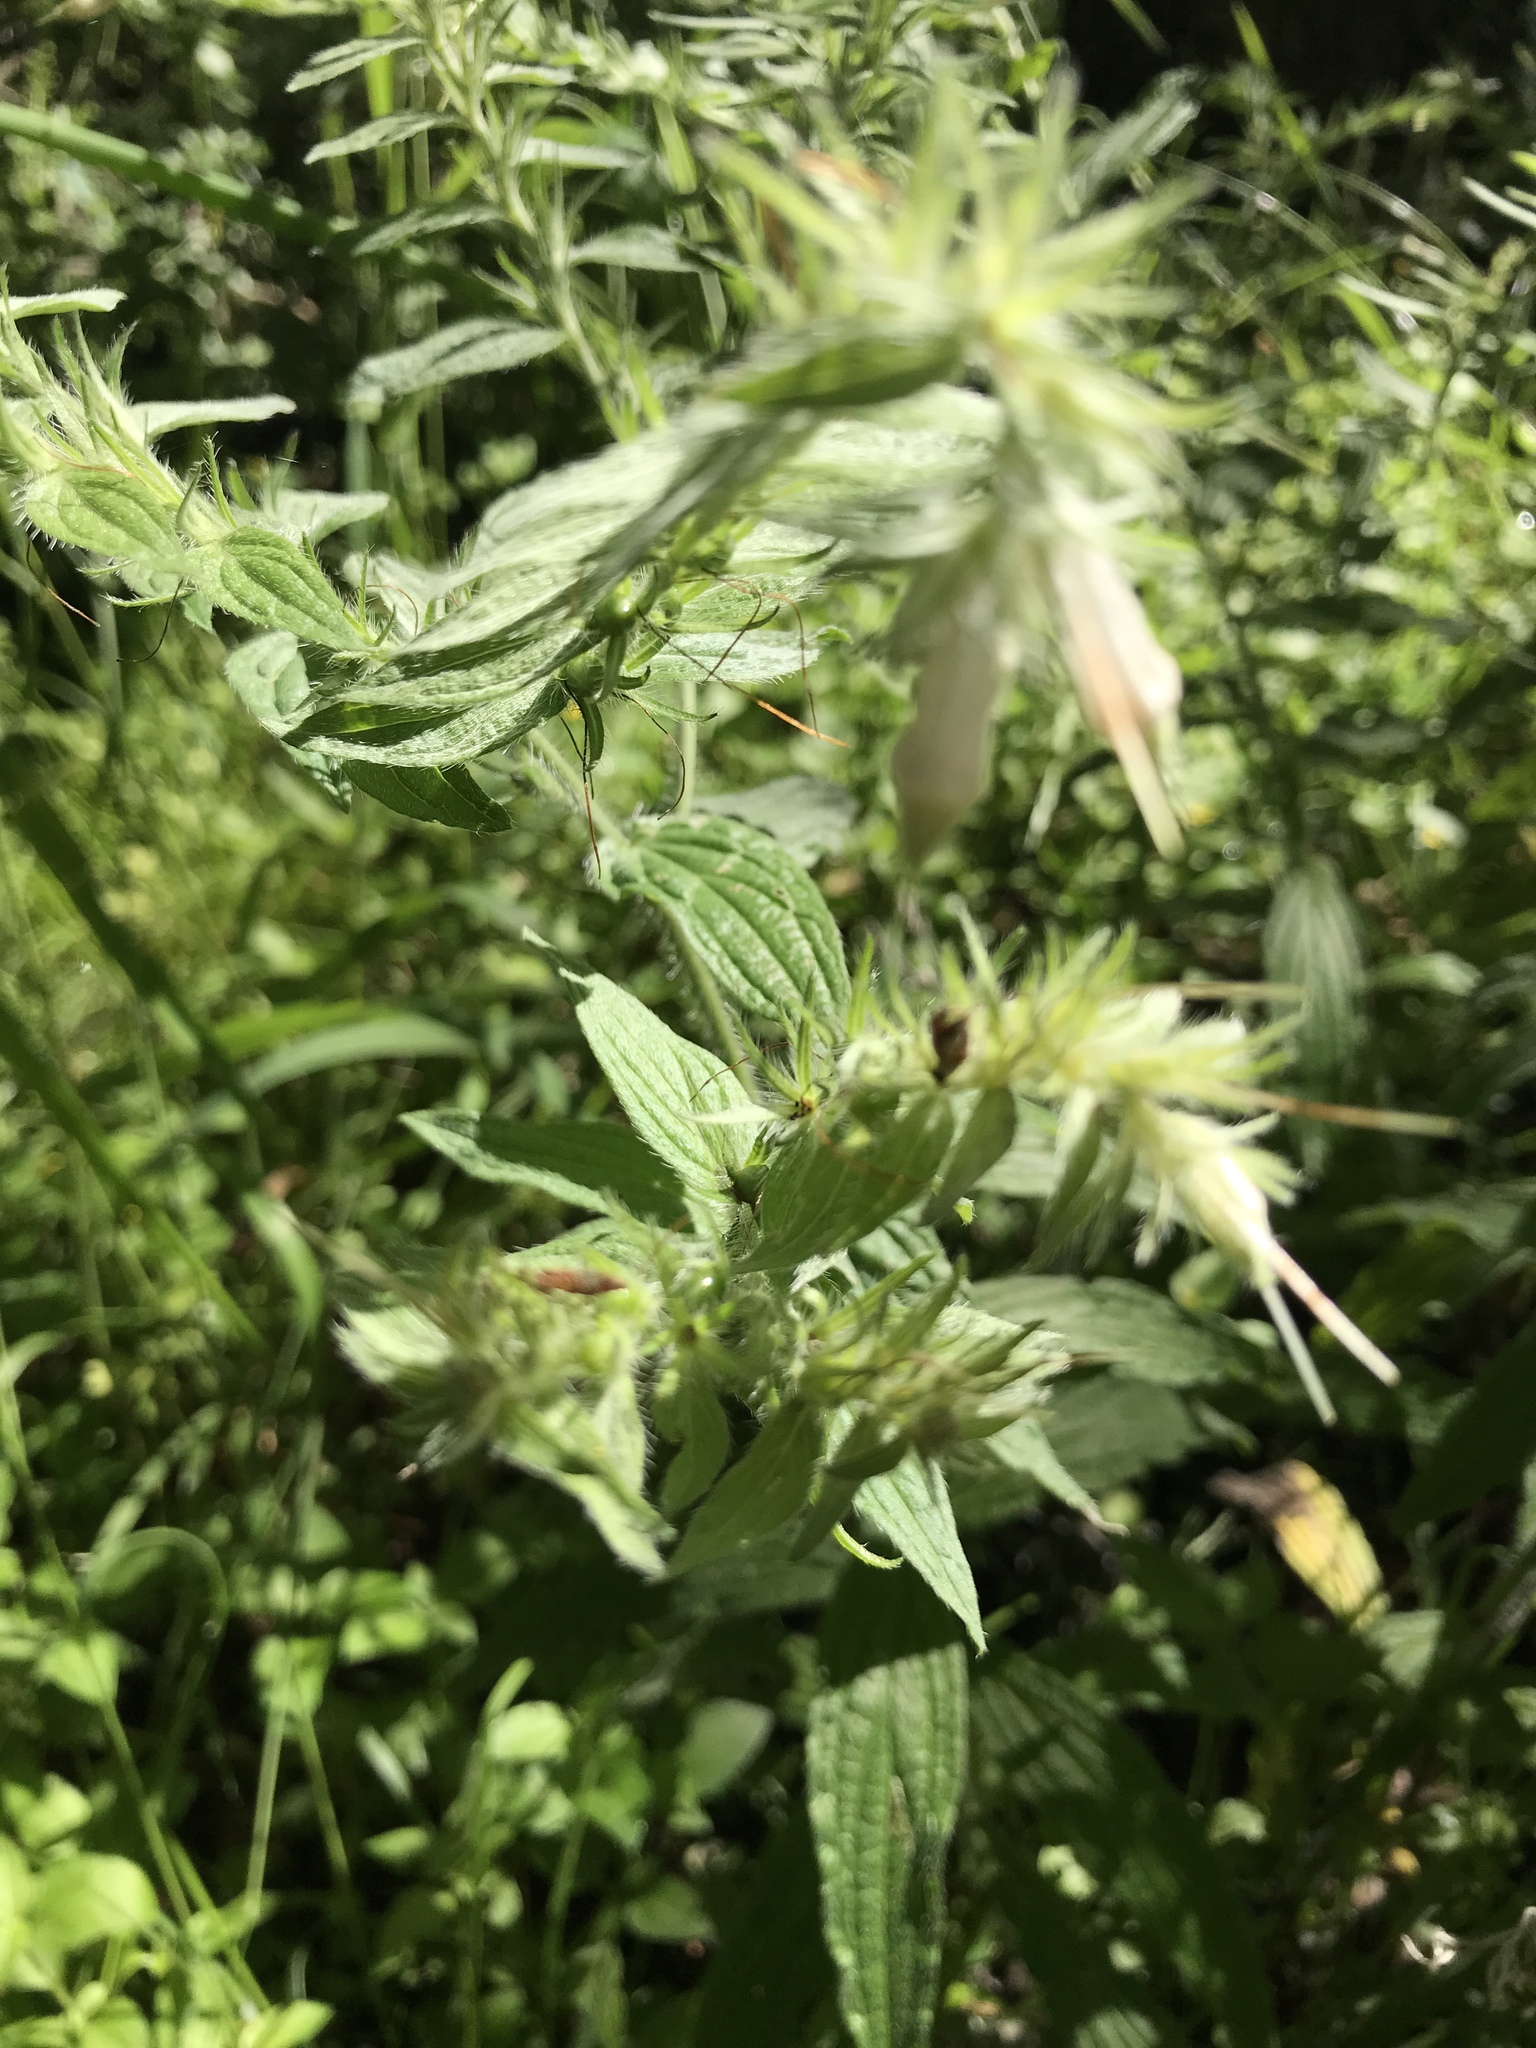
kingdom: Plantae
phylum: Tracheophyta
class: Magnoliopsida
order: Boraginales
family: Boraginaceae
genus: Lithospermum
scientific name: Lithospermum caroliniense
